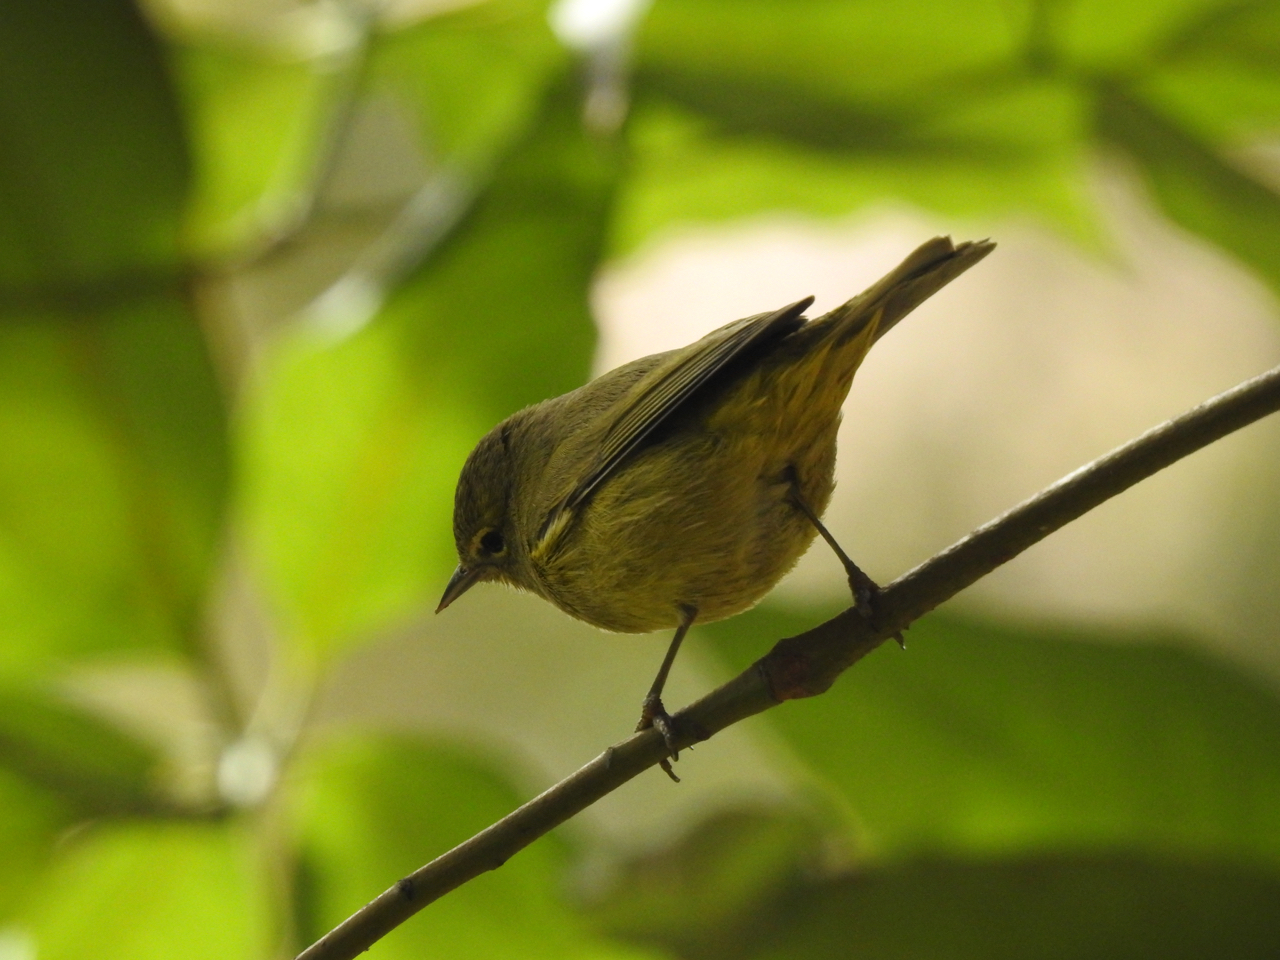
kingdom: Animalia
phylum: Chordata
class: Aves
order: Passeriformes
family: Parulidae
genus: Leiothlypis
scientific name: Leiothlypis celata
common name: Orange-crowned warbler
